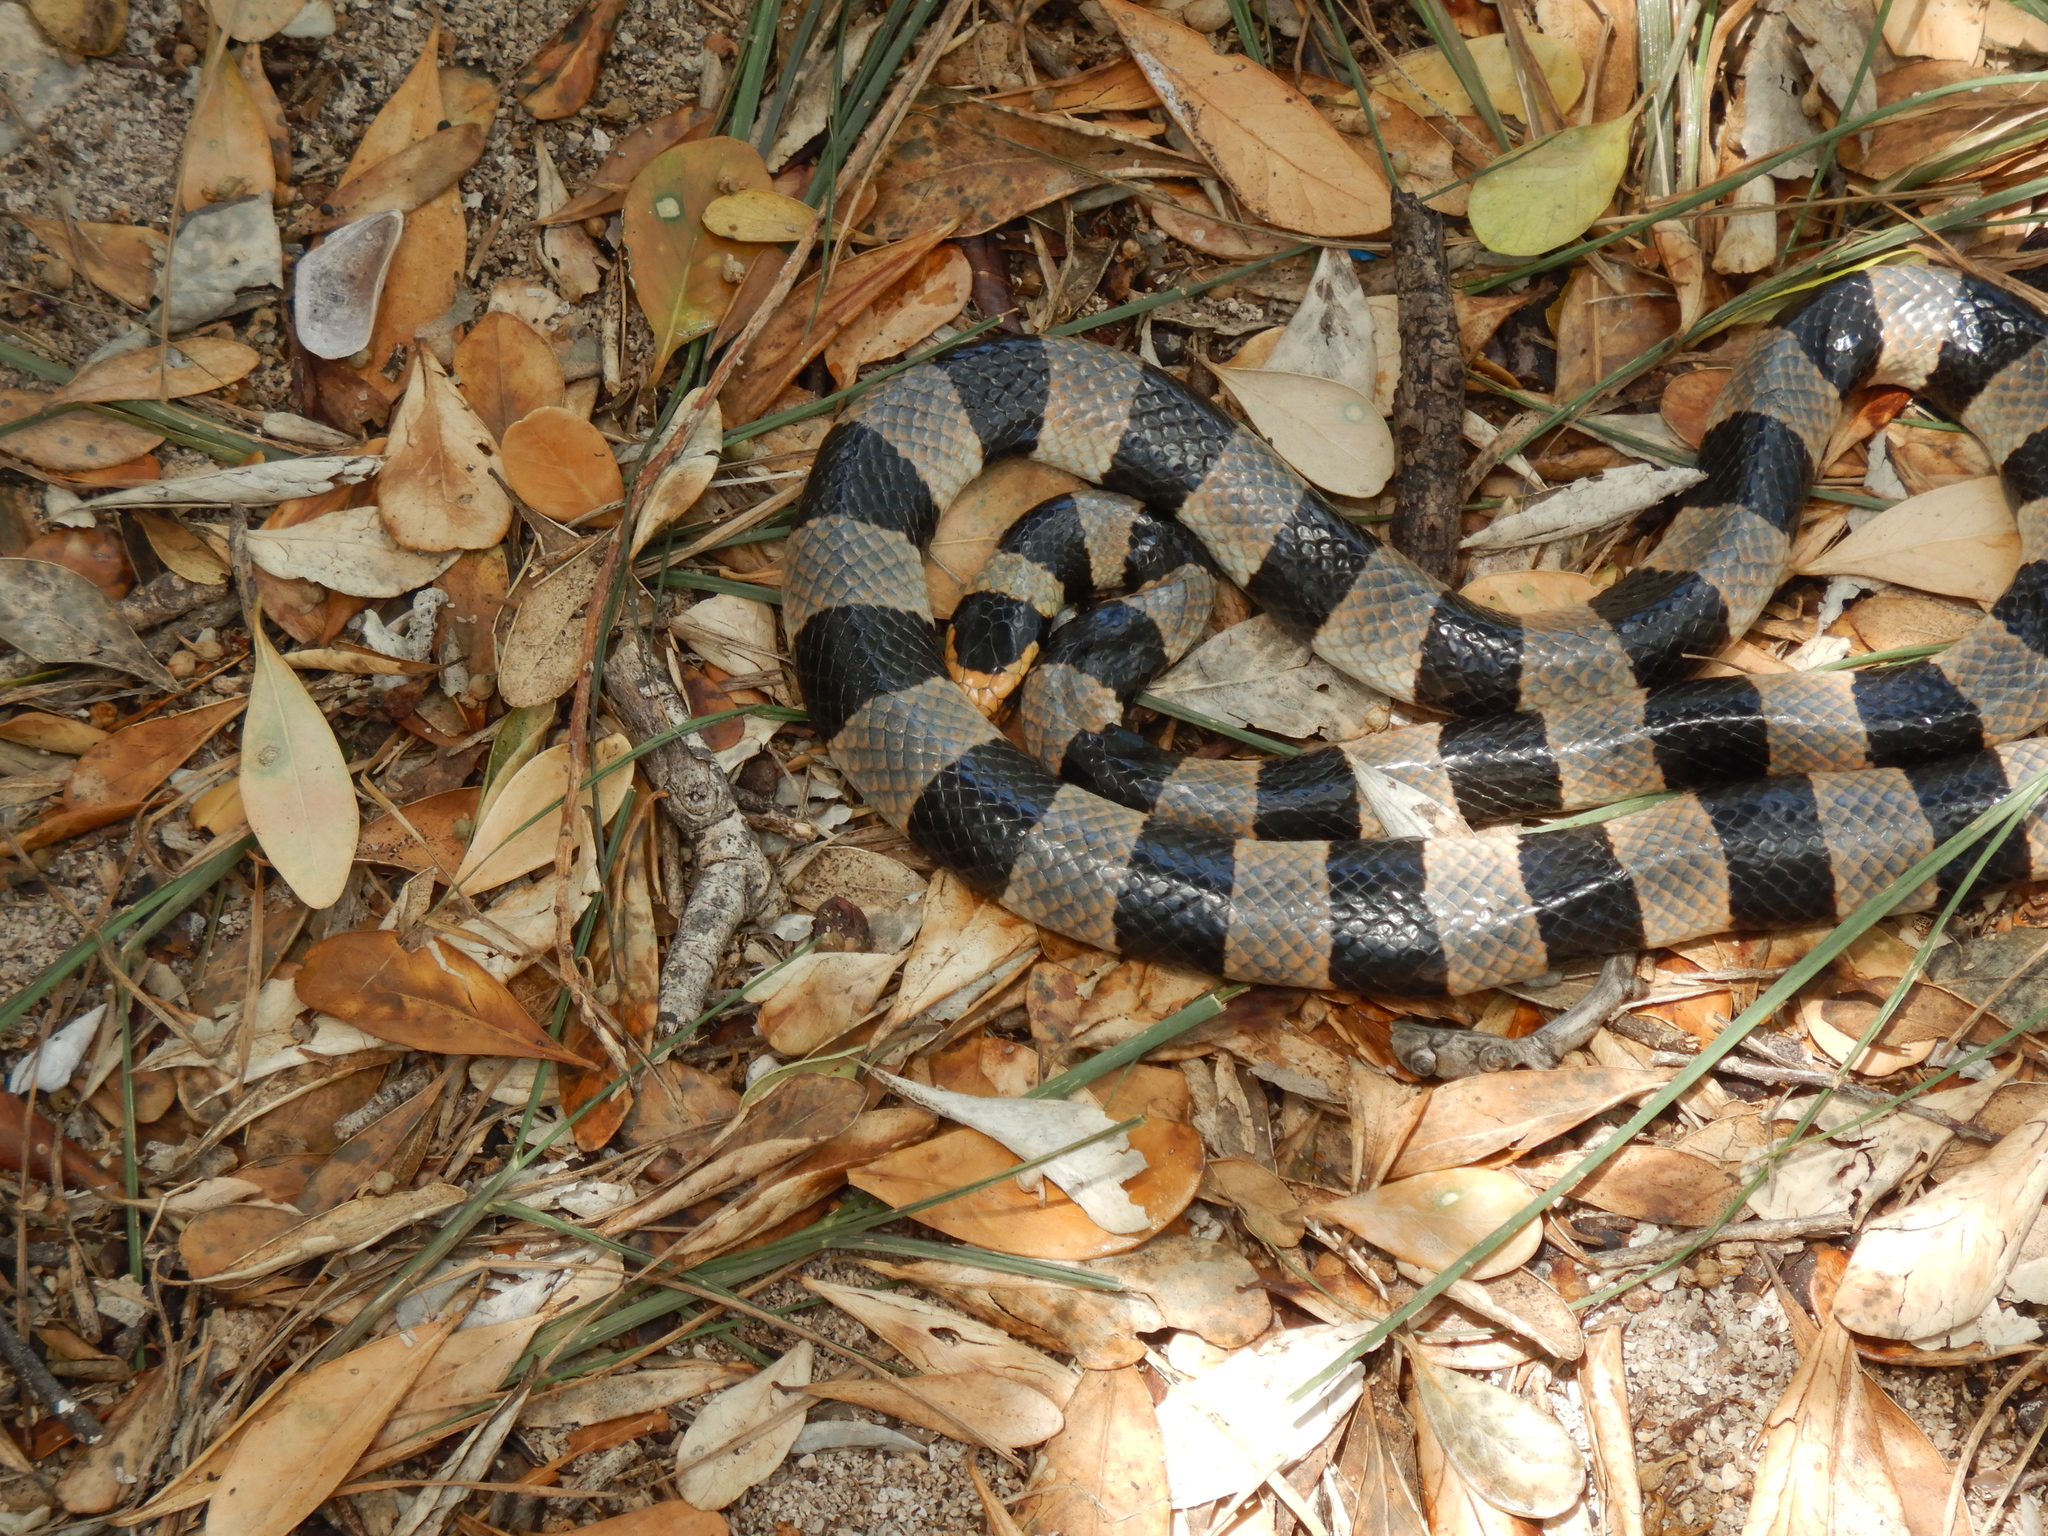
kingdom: Animalia
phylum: Chordata
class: Squamata
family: Elapidae
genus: Laticauda
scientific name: Laticauda saintgironsi
